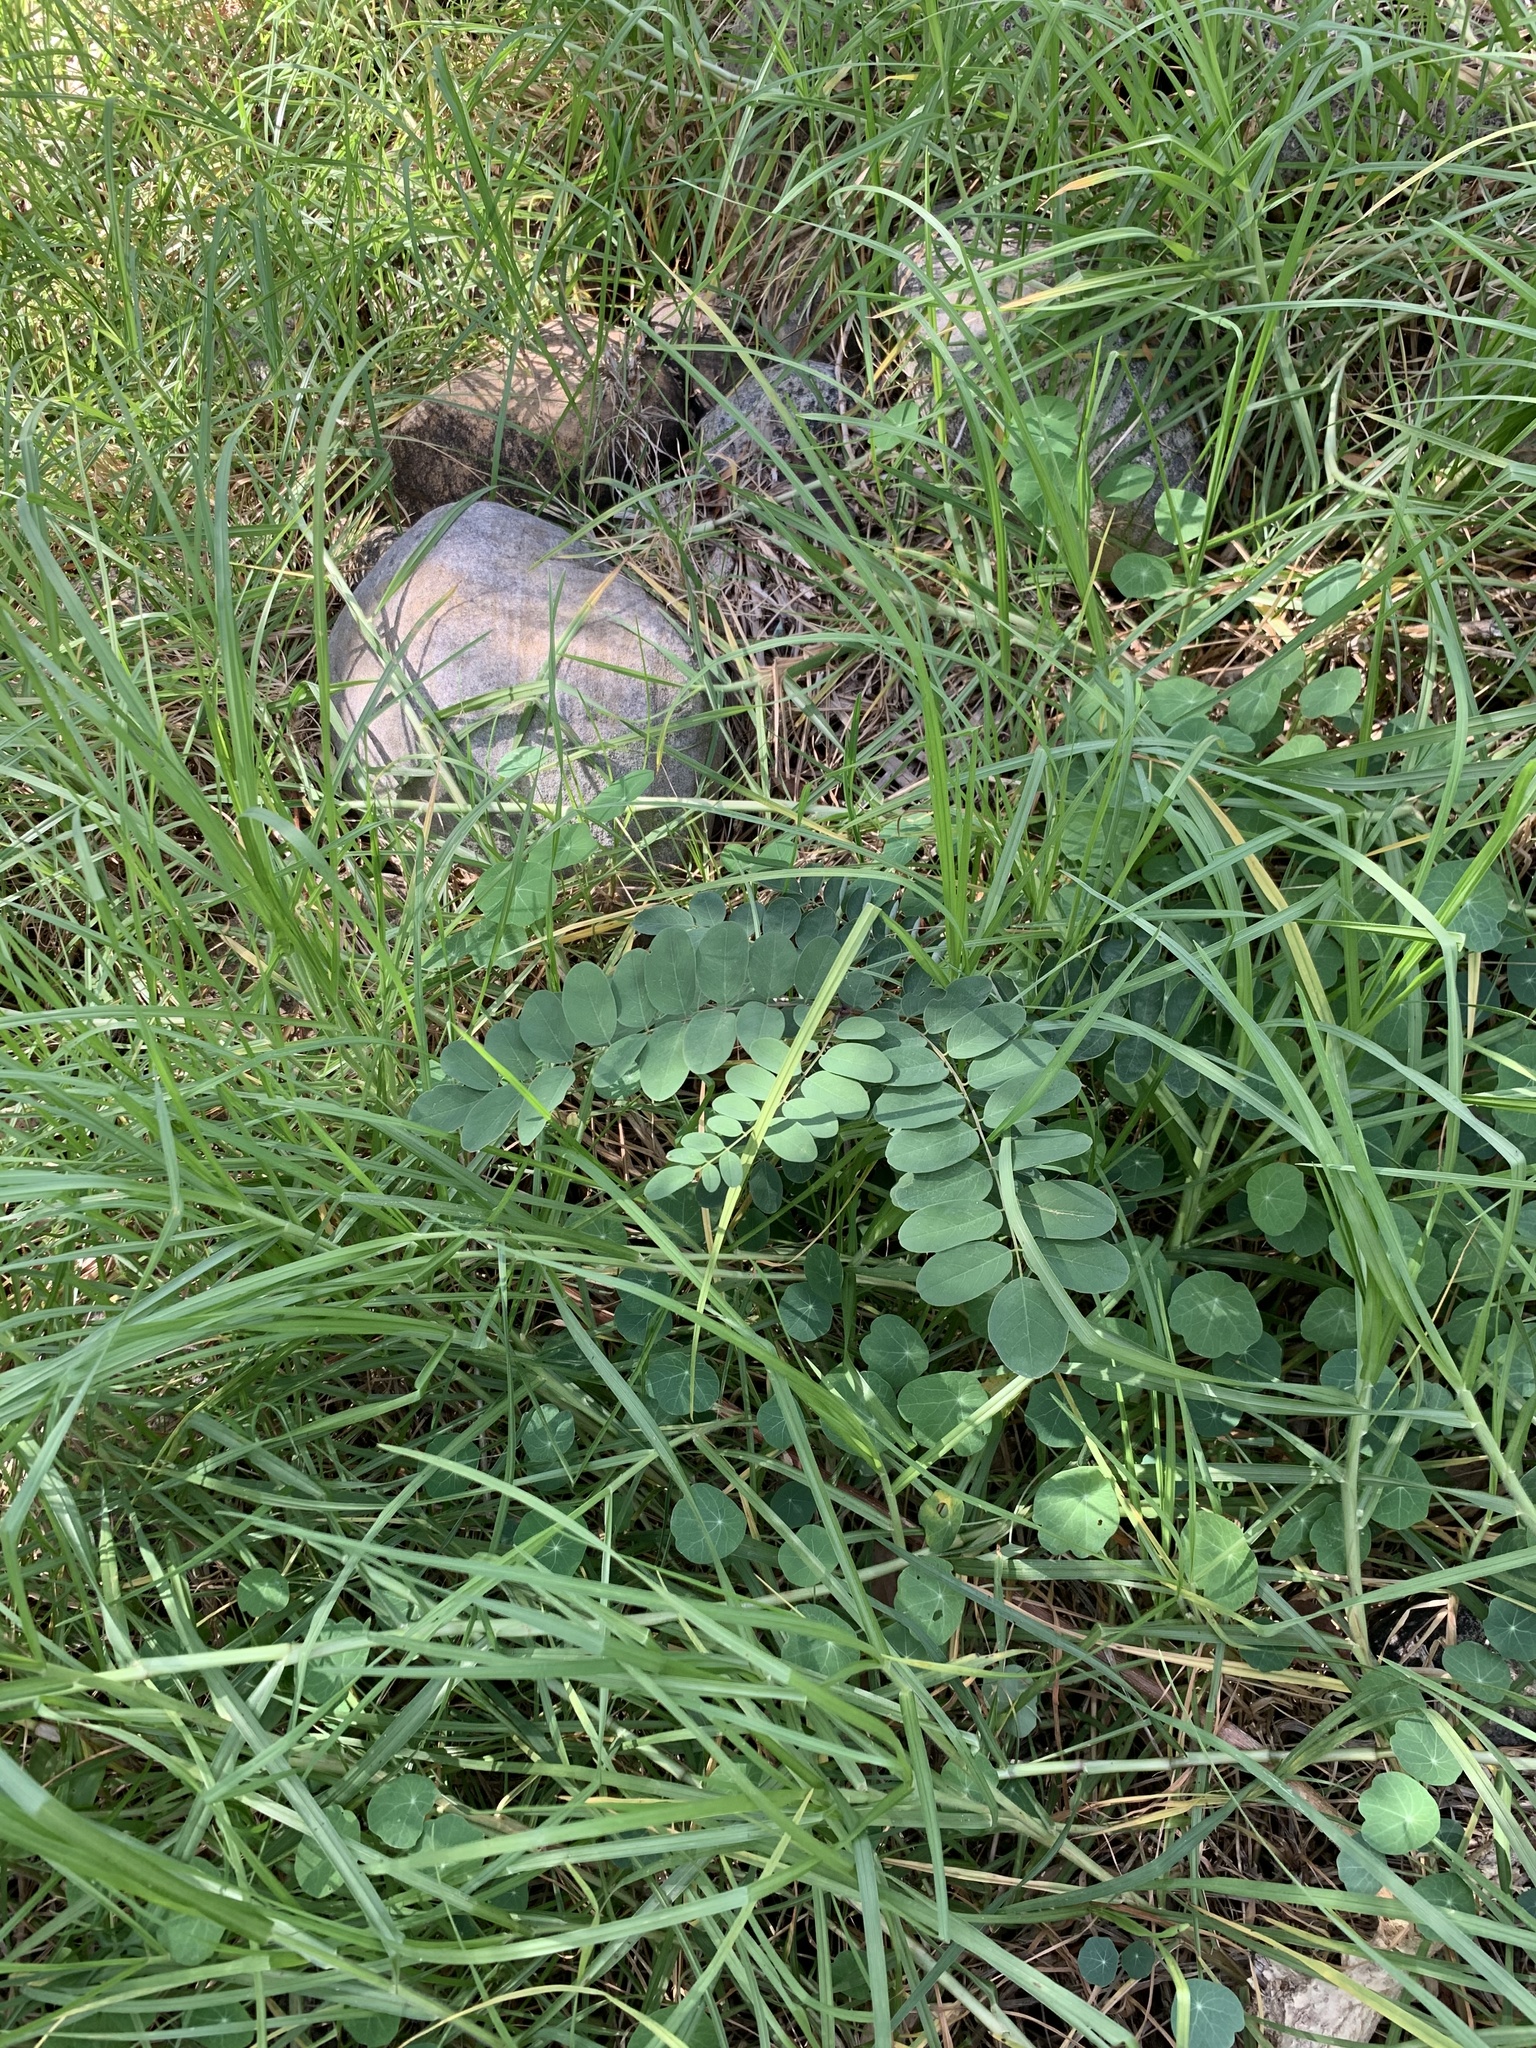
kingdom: Plantae
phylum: Tracheophyta
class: Magnoliopsida
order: Fabales
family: Fabaceae
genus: Robinia
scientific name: Robinia pseudoacacia
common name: Black locust
